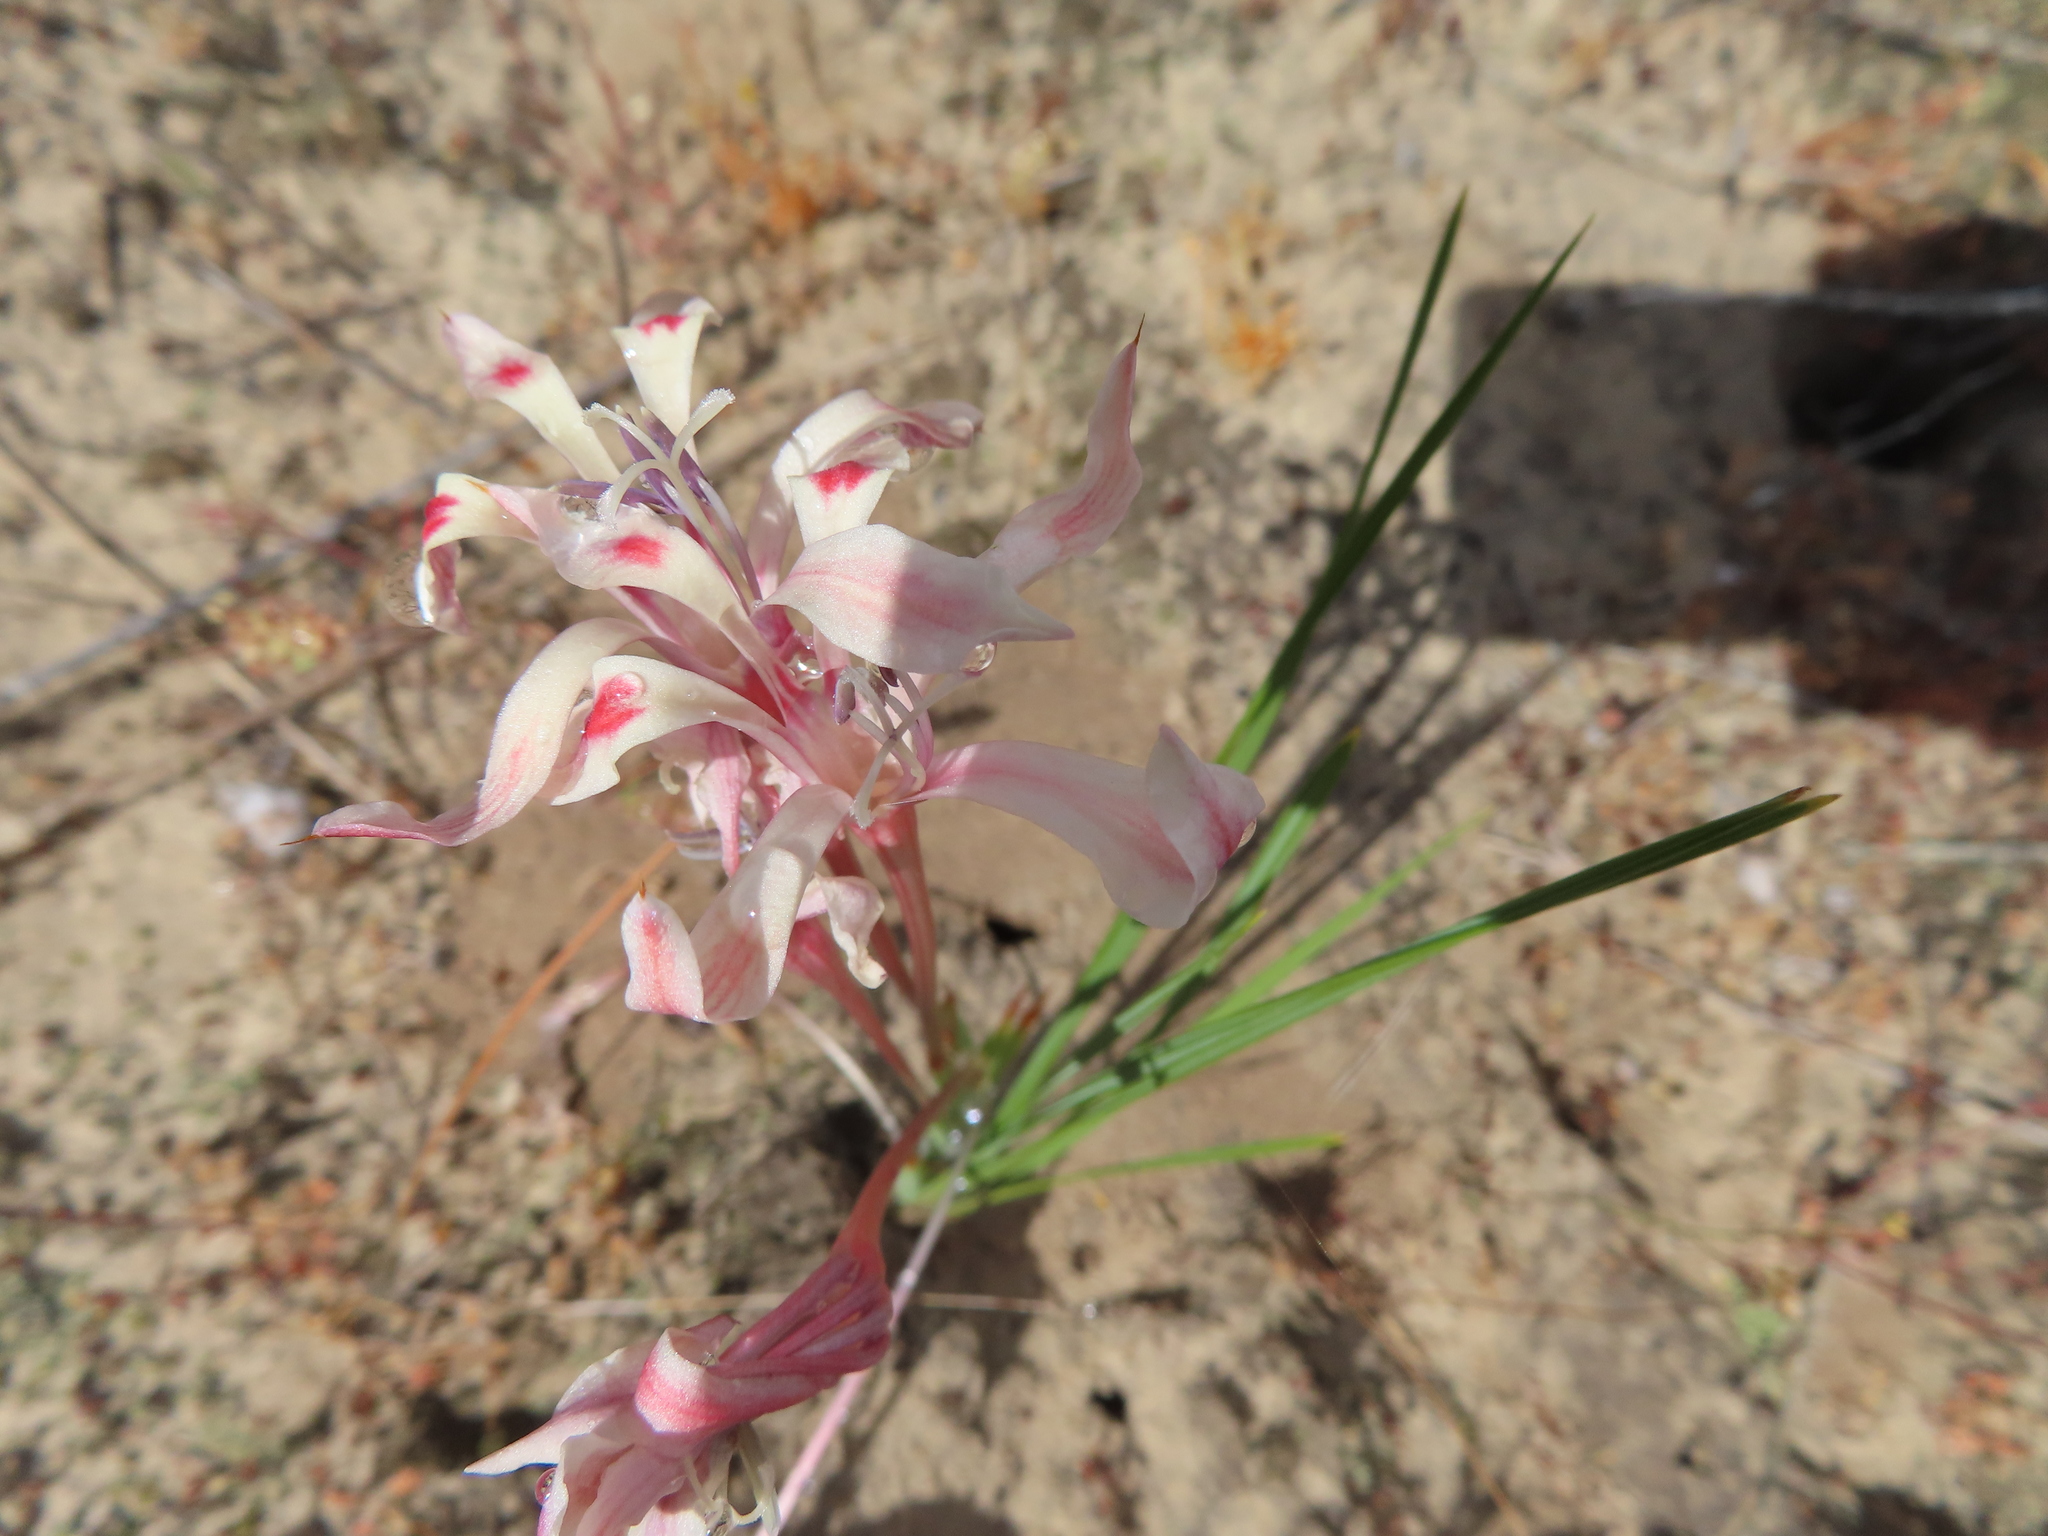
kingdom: Plantae
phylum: Tracheophyta
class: Liliopsida
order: Asparagales
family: Iridaceae
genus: Babiana
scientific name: Babiana tubiflora
